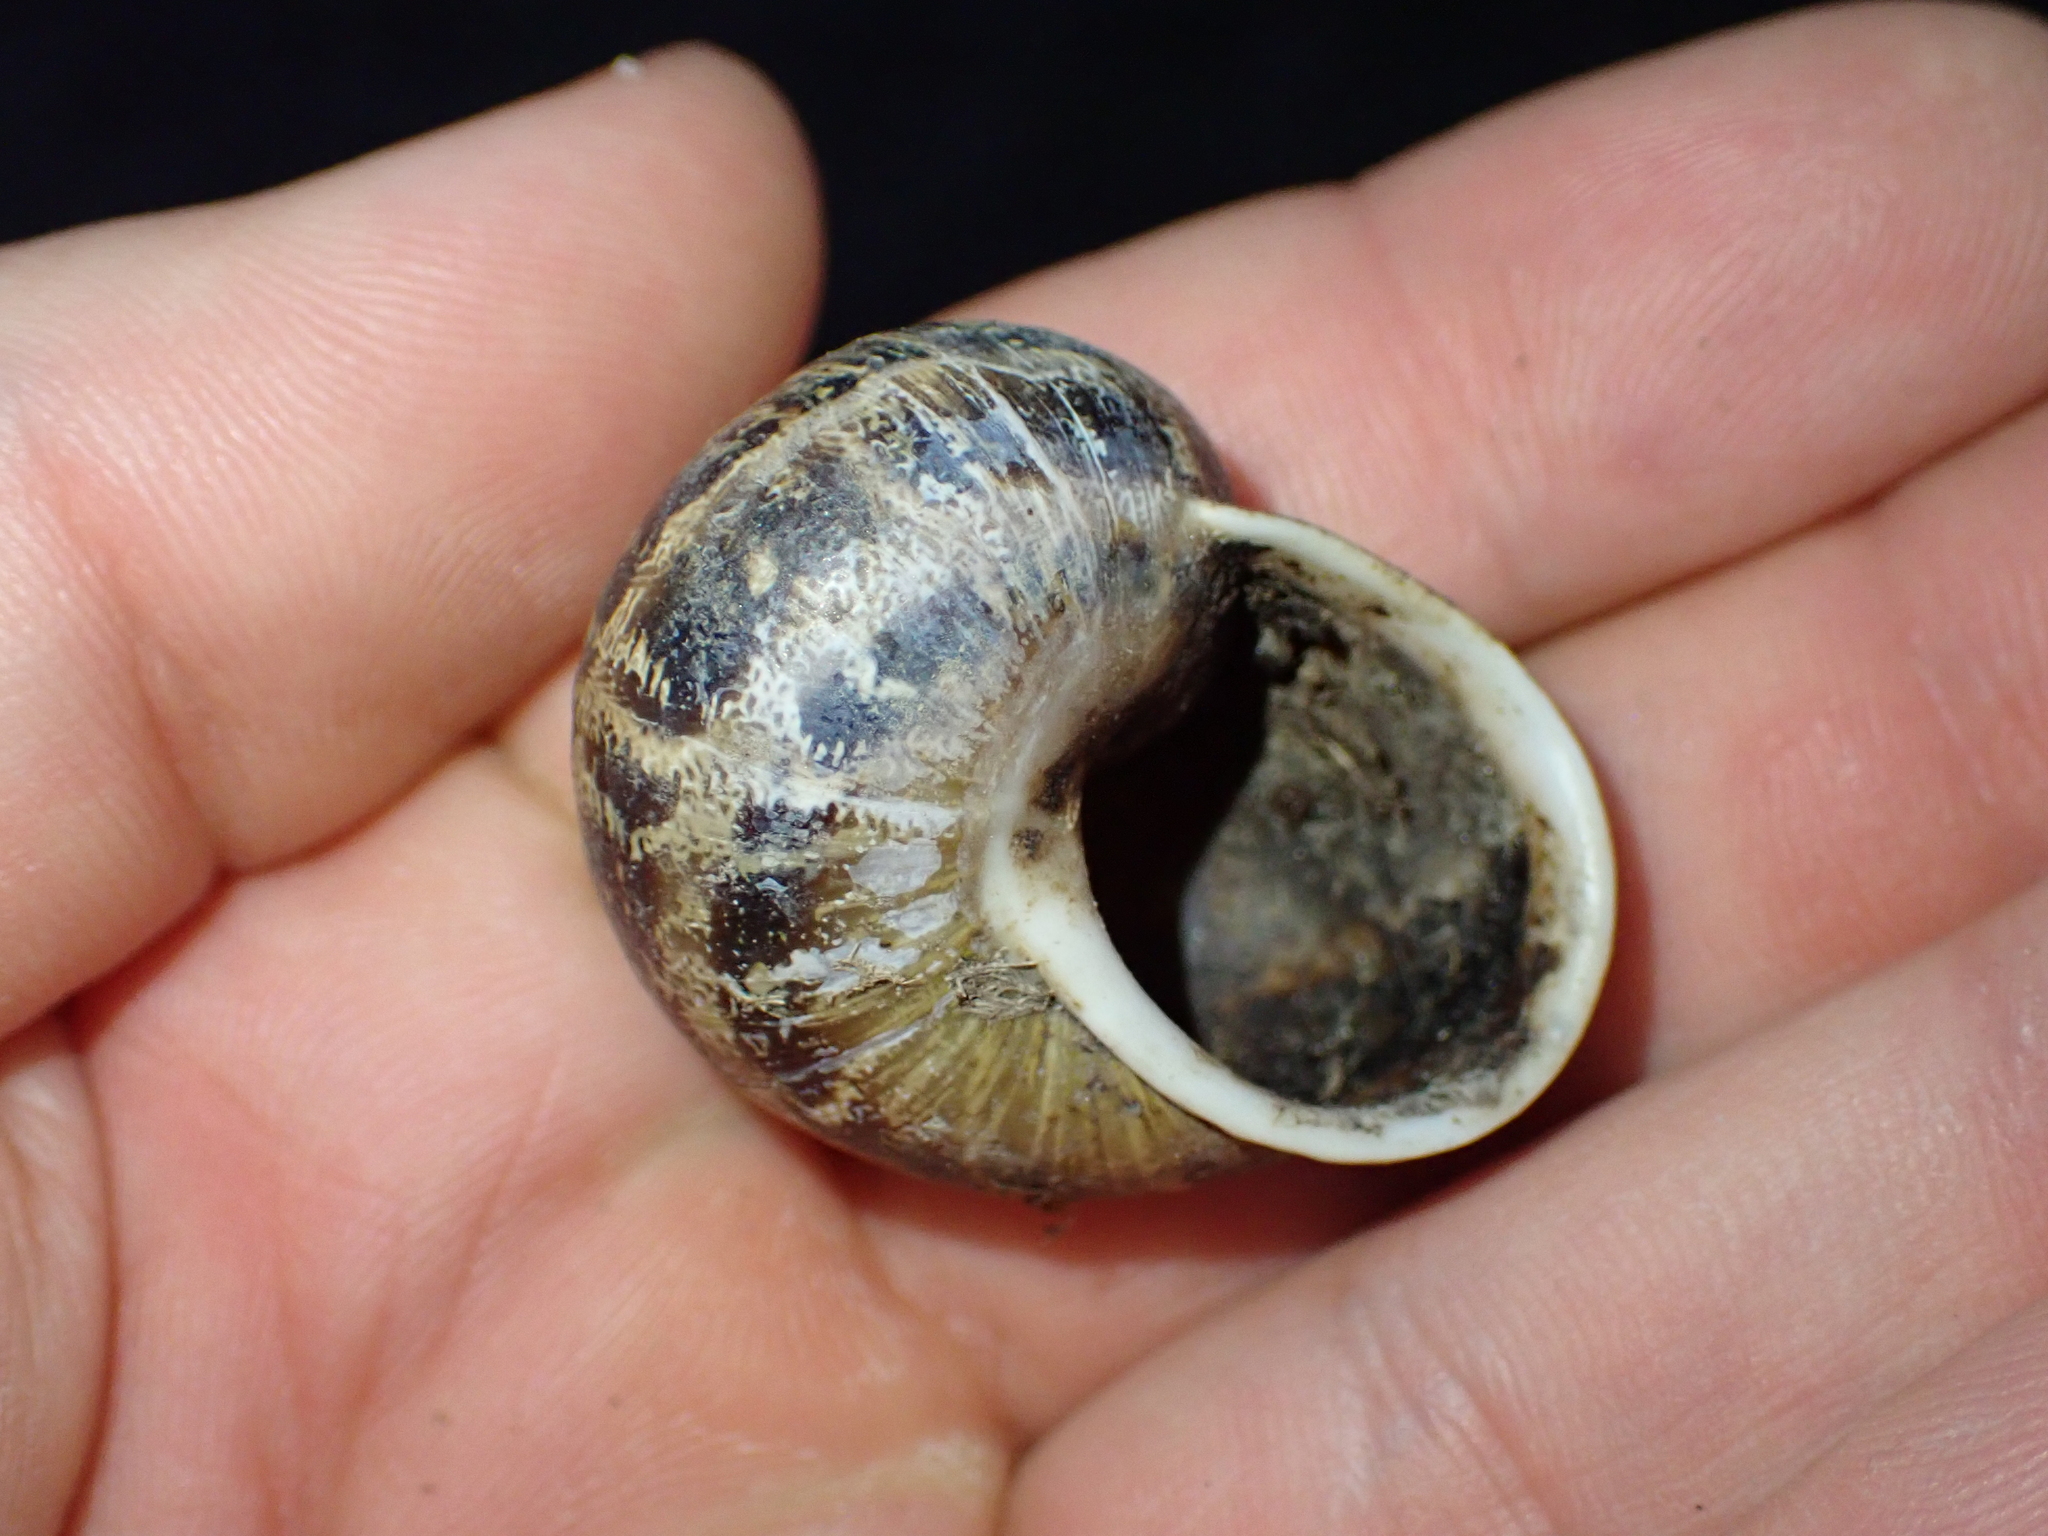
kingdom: Animalia
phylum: Mollusca
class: Gastropoda
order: Stylommatophora
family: Helicidae
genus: Cornu
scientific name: Cornu aspersum
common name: Brown garden snail
